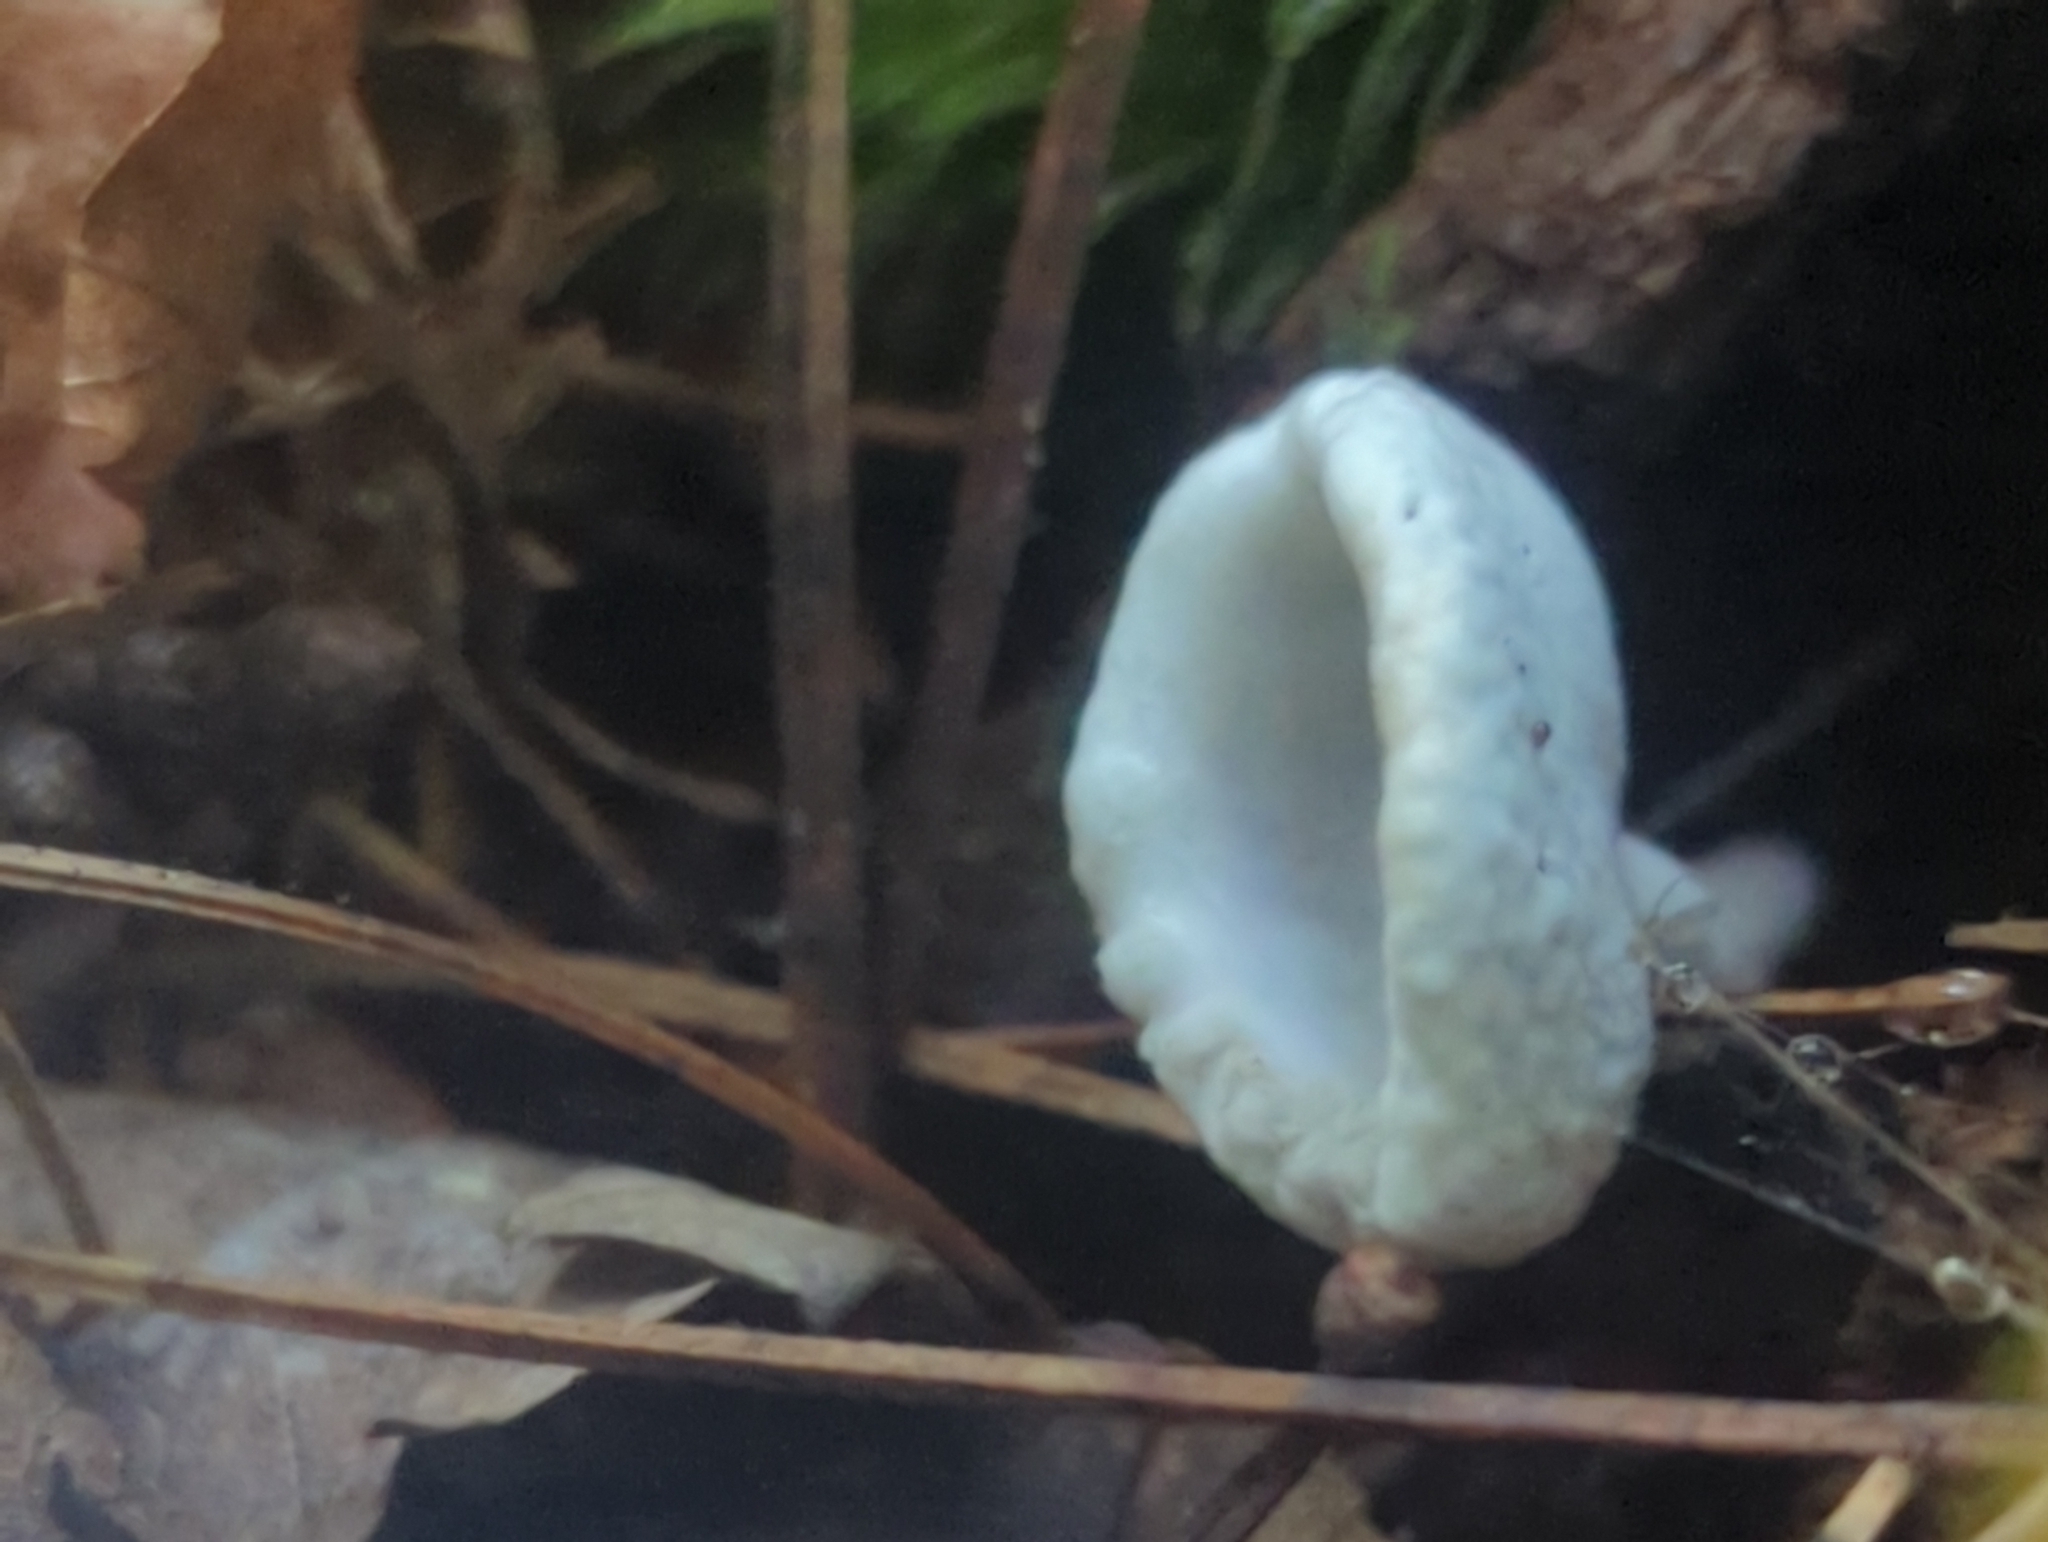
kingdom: Fungi
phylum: Ascomycota
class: Sordariomycetes
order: Hypocreales
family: Hypocreaceae
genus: Hypomyces
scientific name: Hypomyces cervinus
